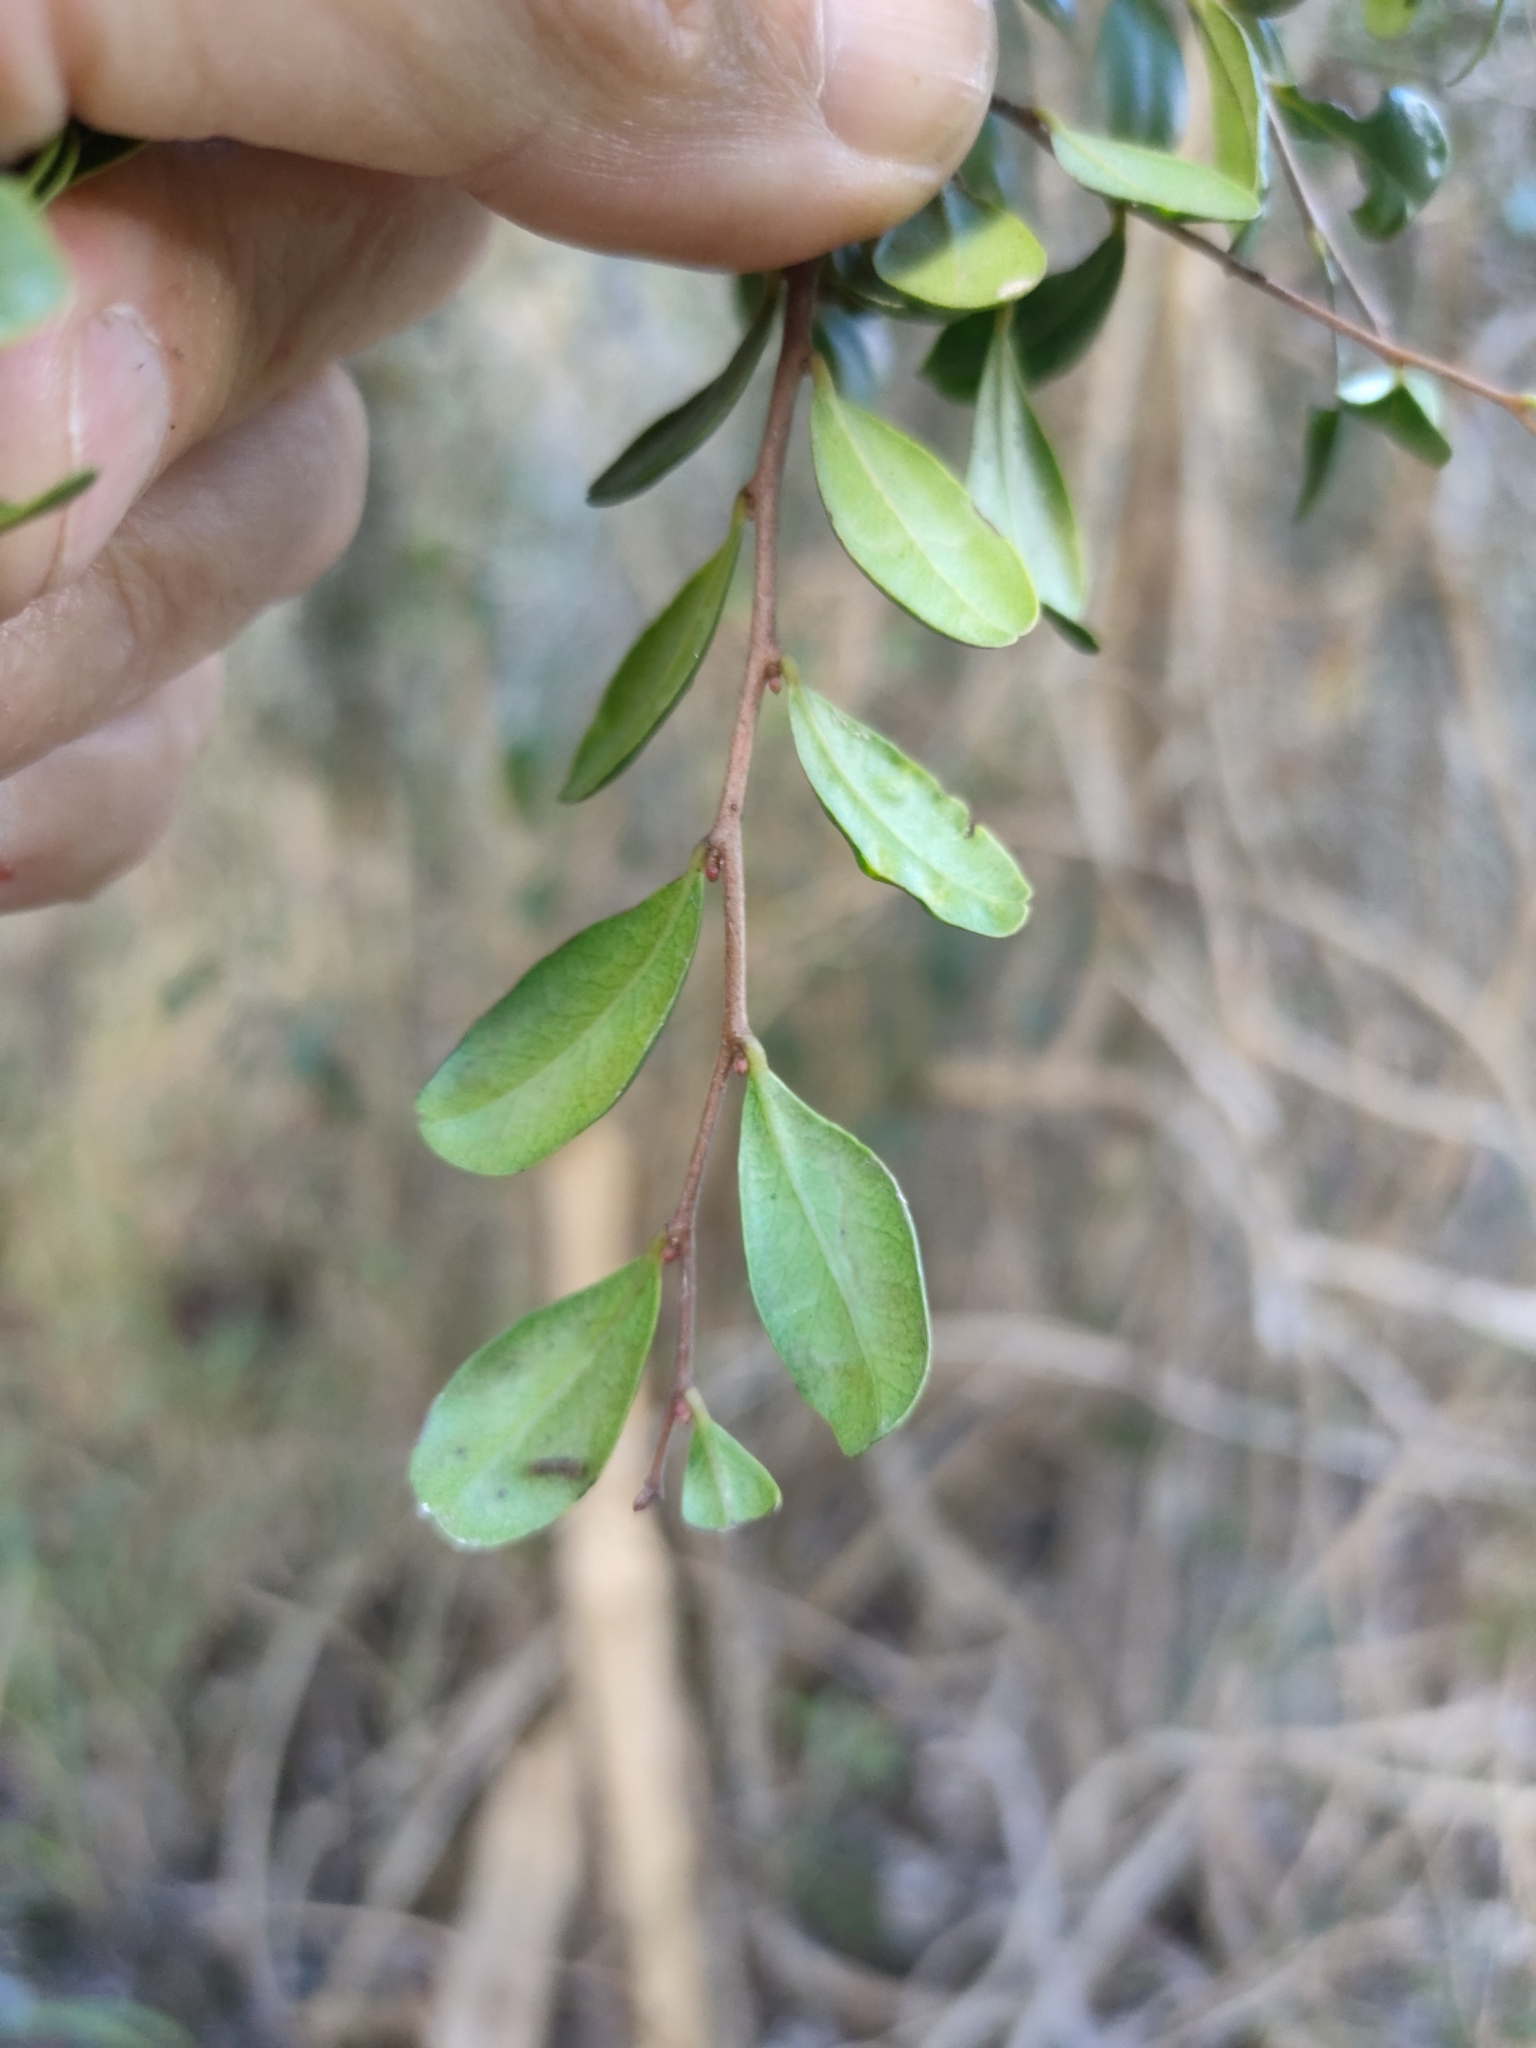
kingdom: Plantae
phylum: Tracheophyta
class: Magnoliopsida
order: Ericales
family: Ebenaceae
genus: Diospyros
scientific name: Diospyros humilis
